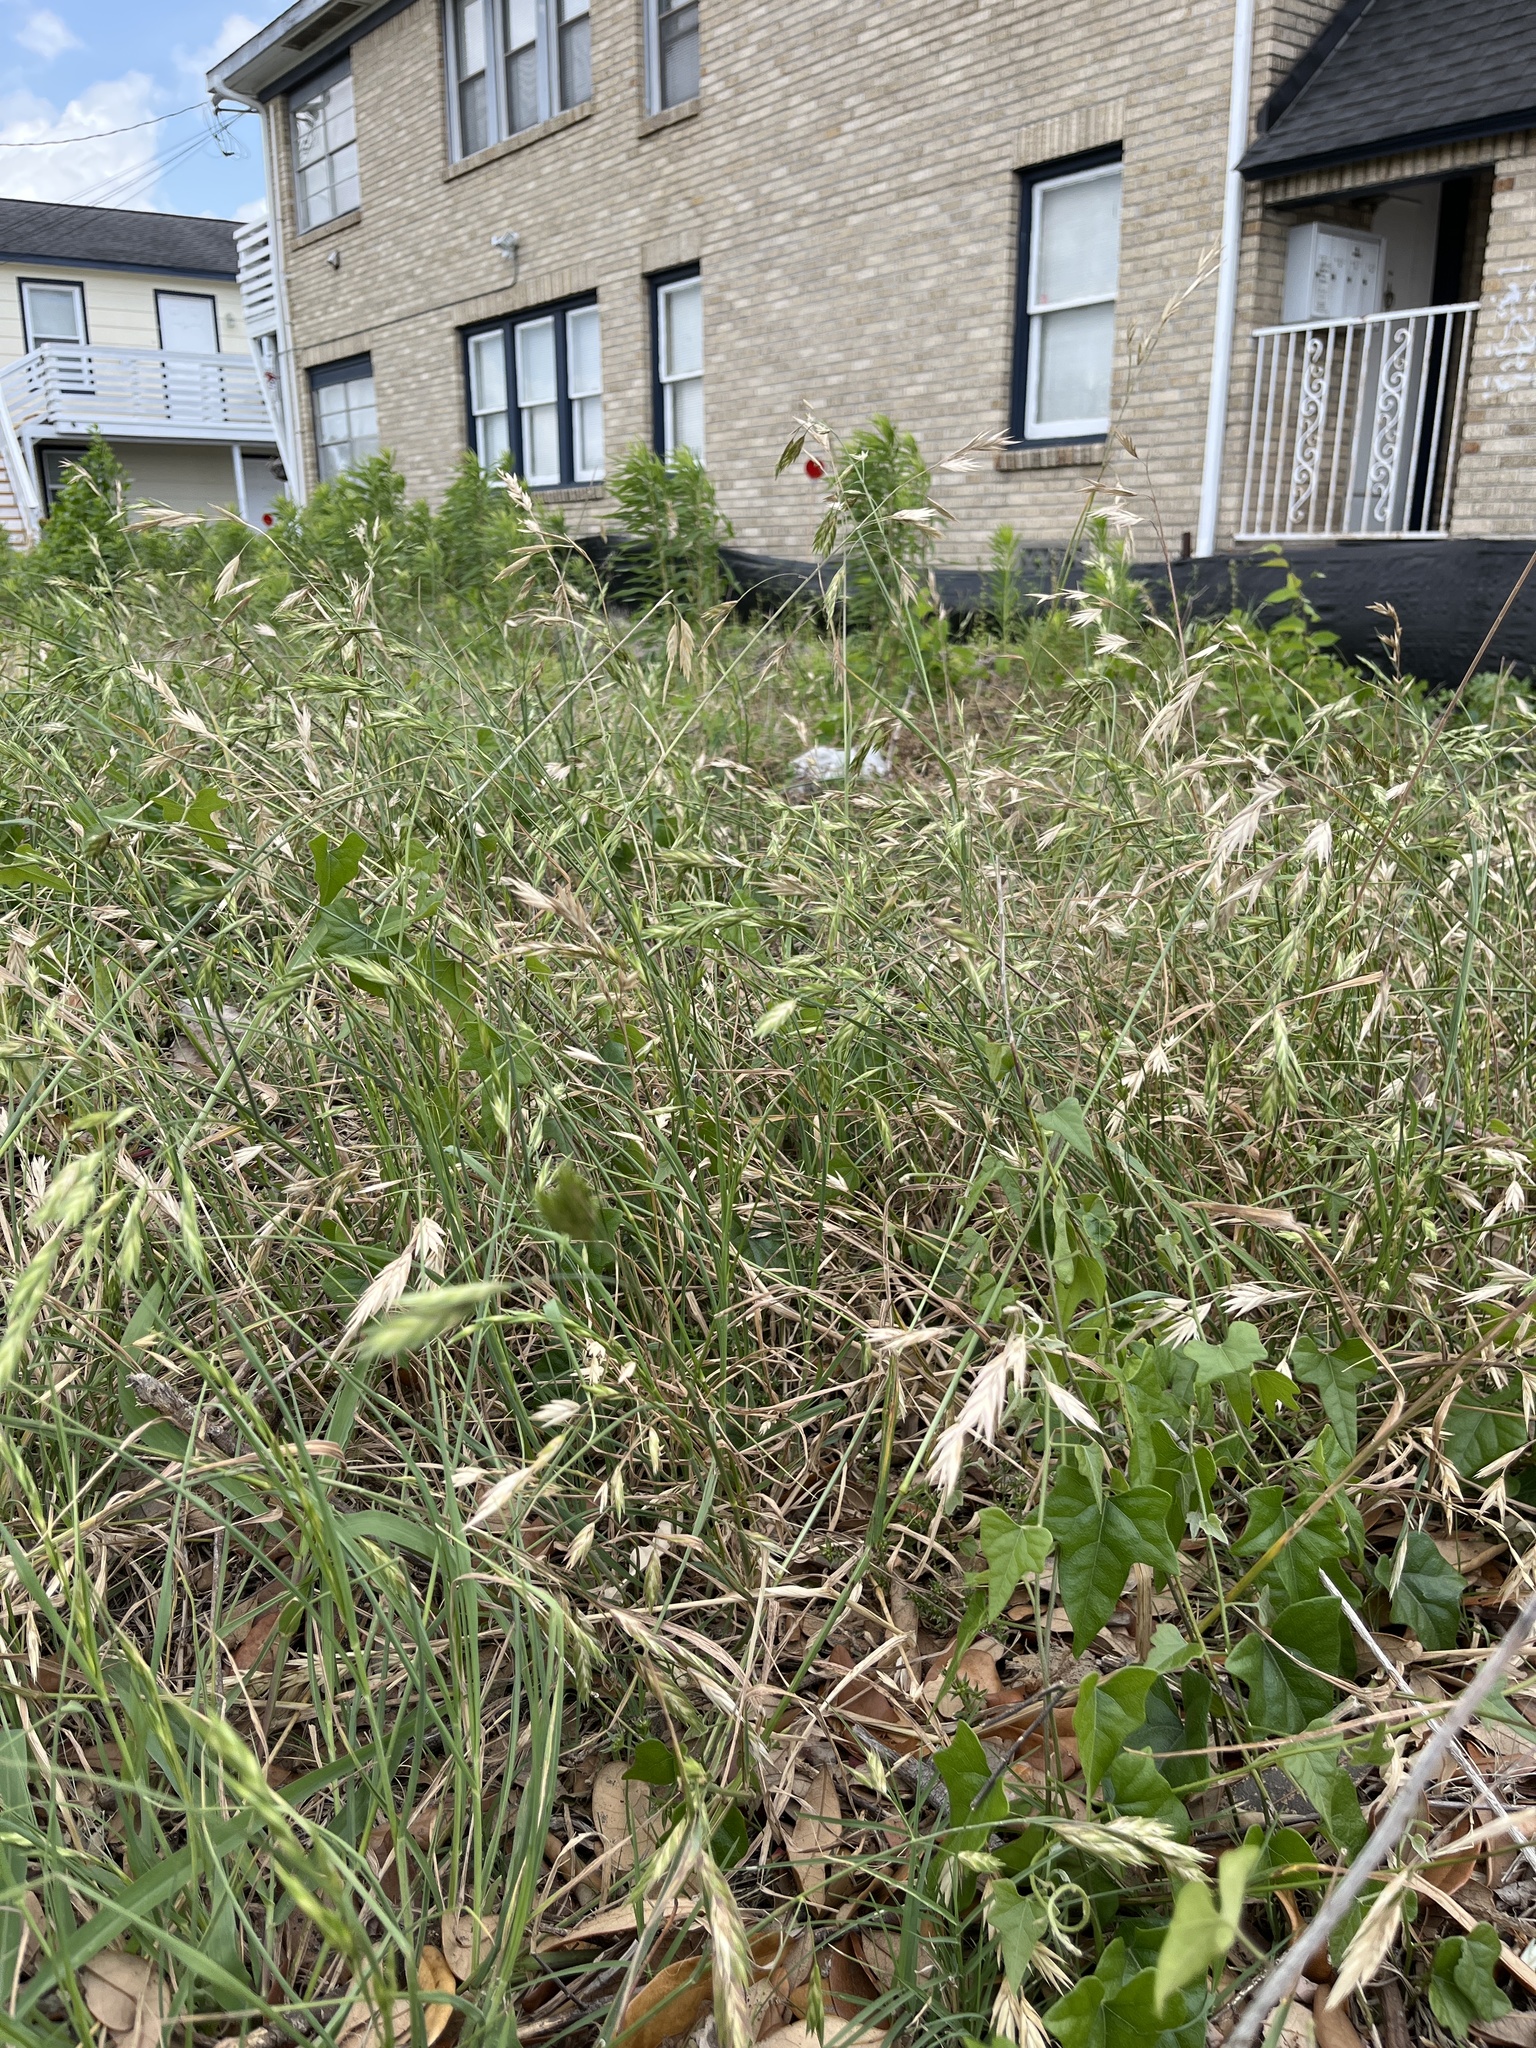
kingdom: Plantae
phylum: Tracheophyta
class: Liliopsida
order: Poales
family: Poaceae
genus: Bromus
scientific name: Bromus catharticus
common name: Rescuegrass
